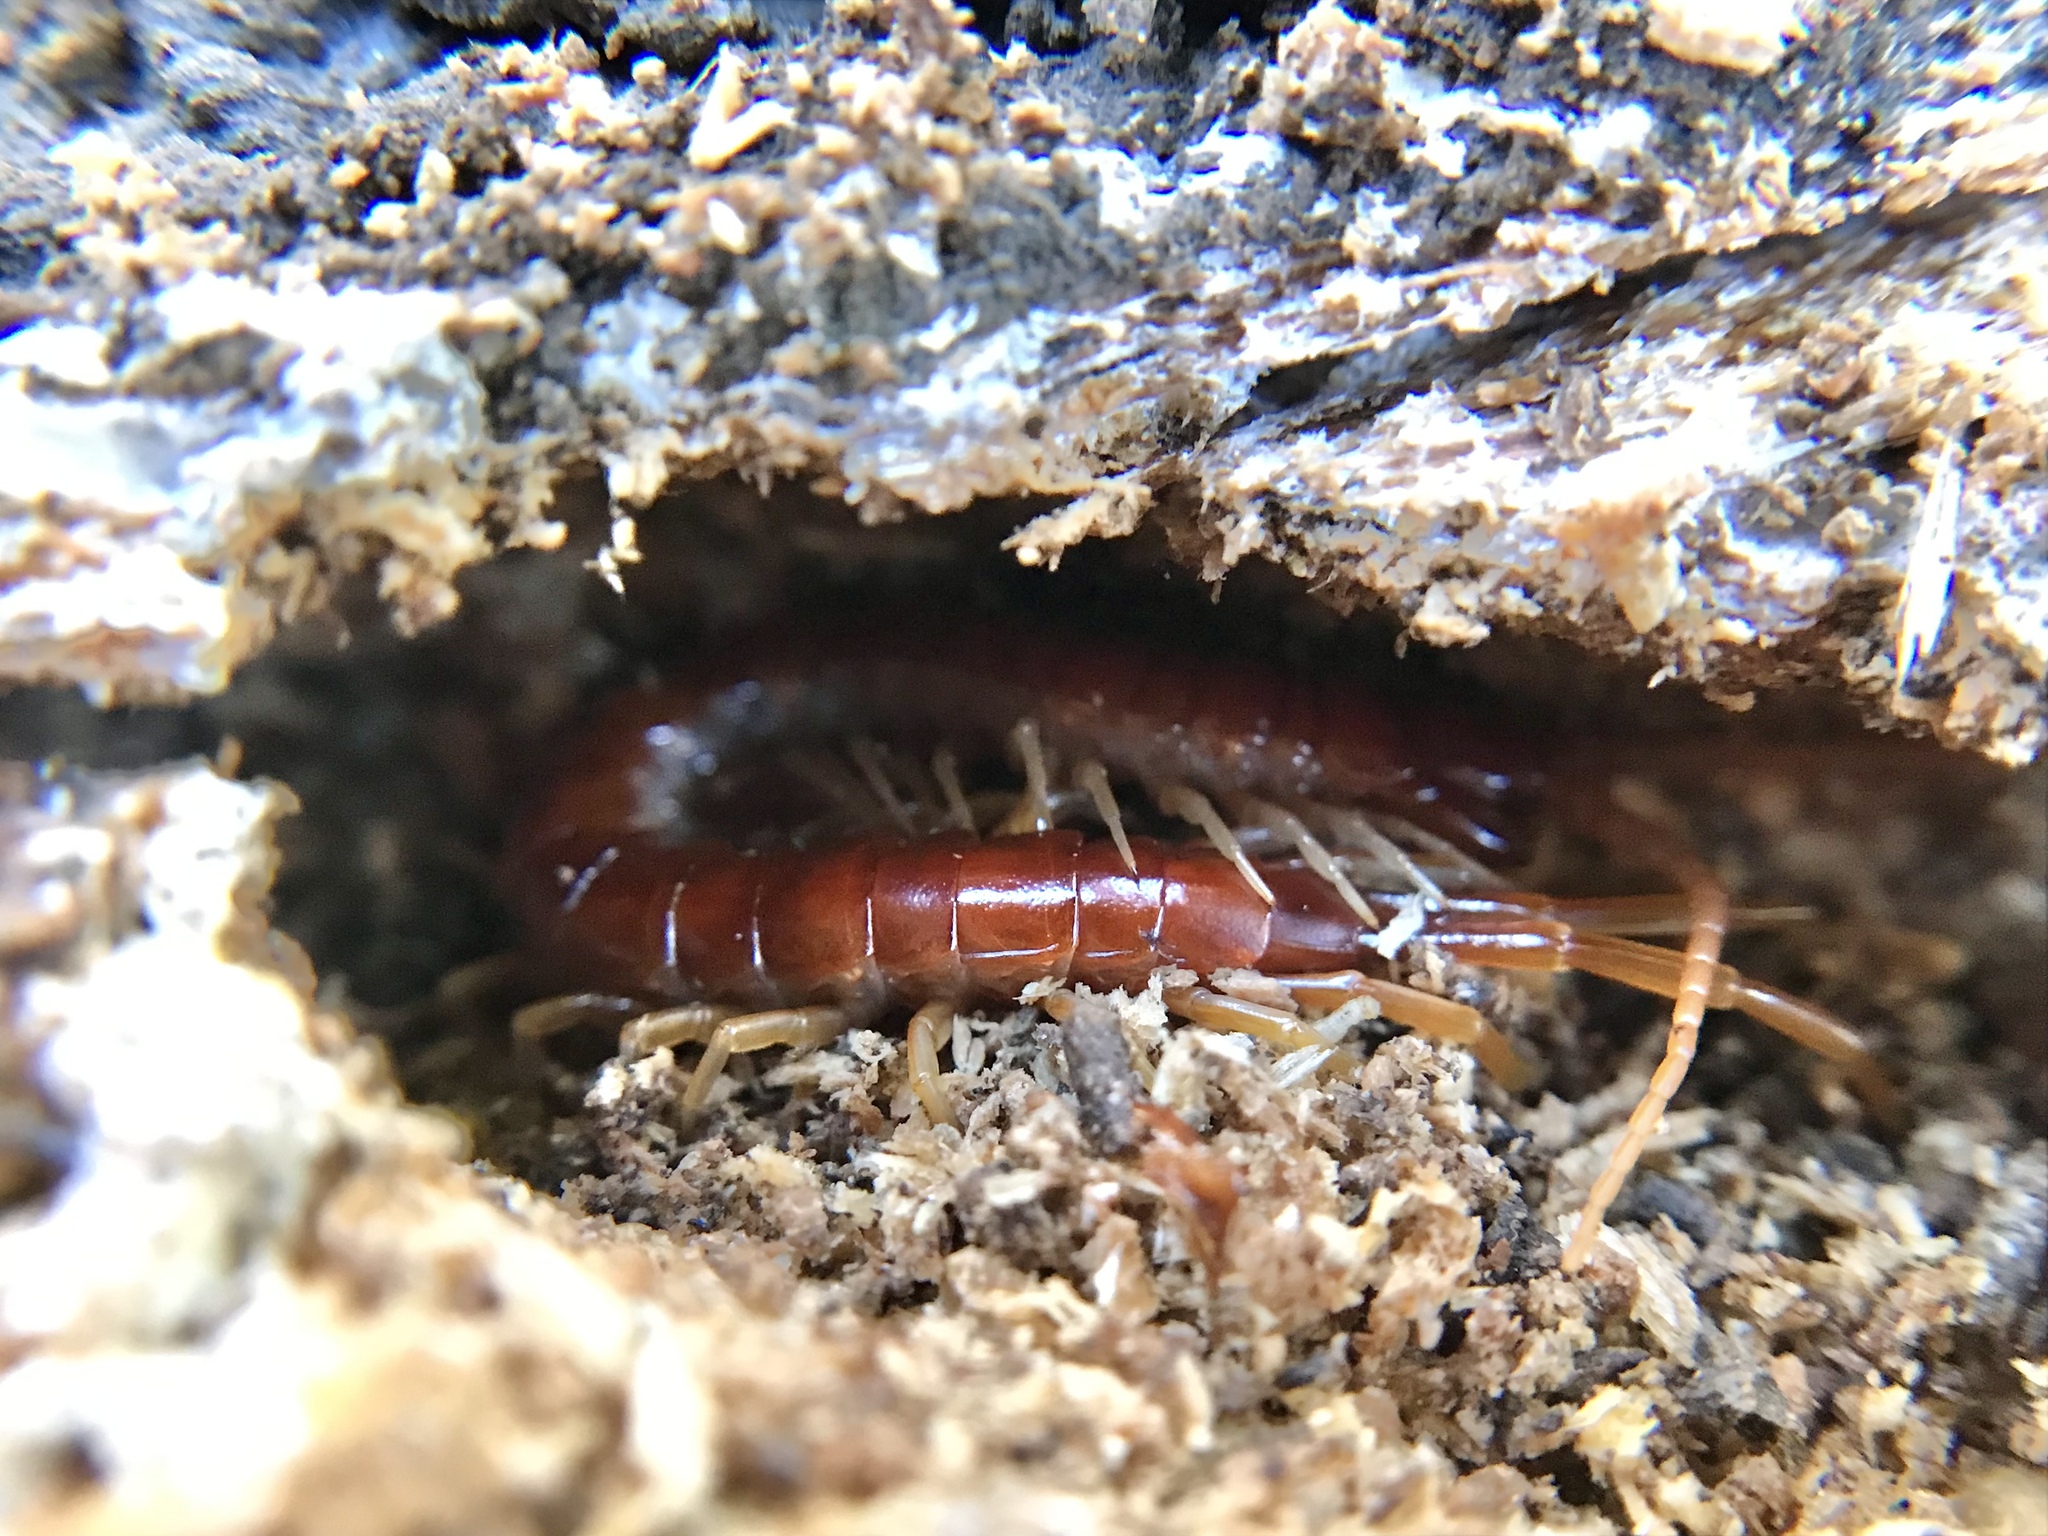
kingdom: Animalia
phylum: Arthropoda
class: Chilopoda
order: Scolopendromorpha
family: Scolopocryptopidae
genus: Scolopocryptops
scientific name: Scolopocryptops sexspinosus
